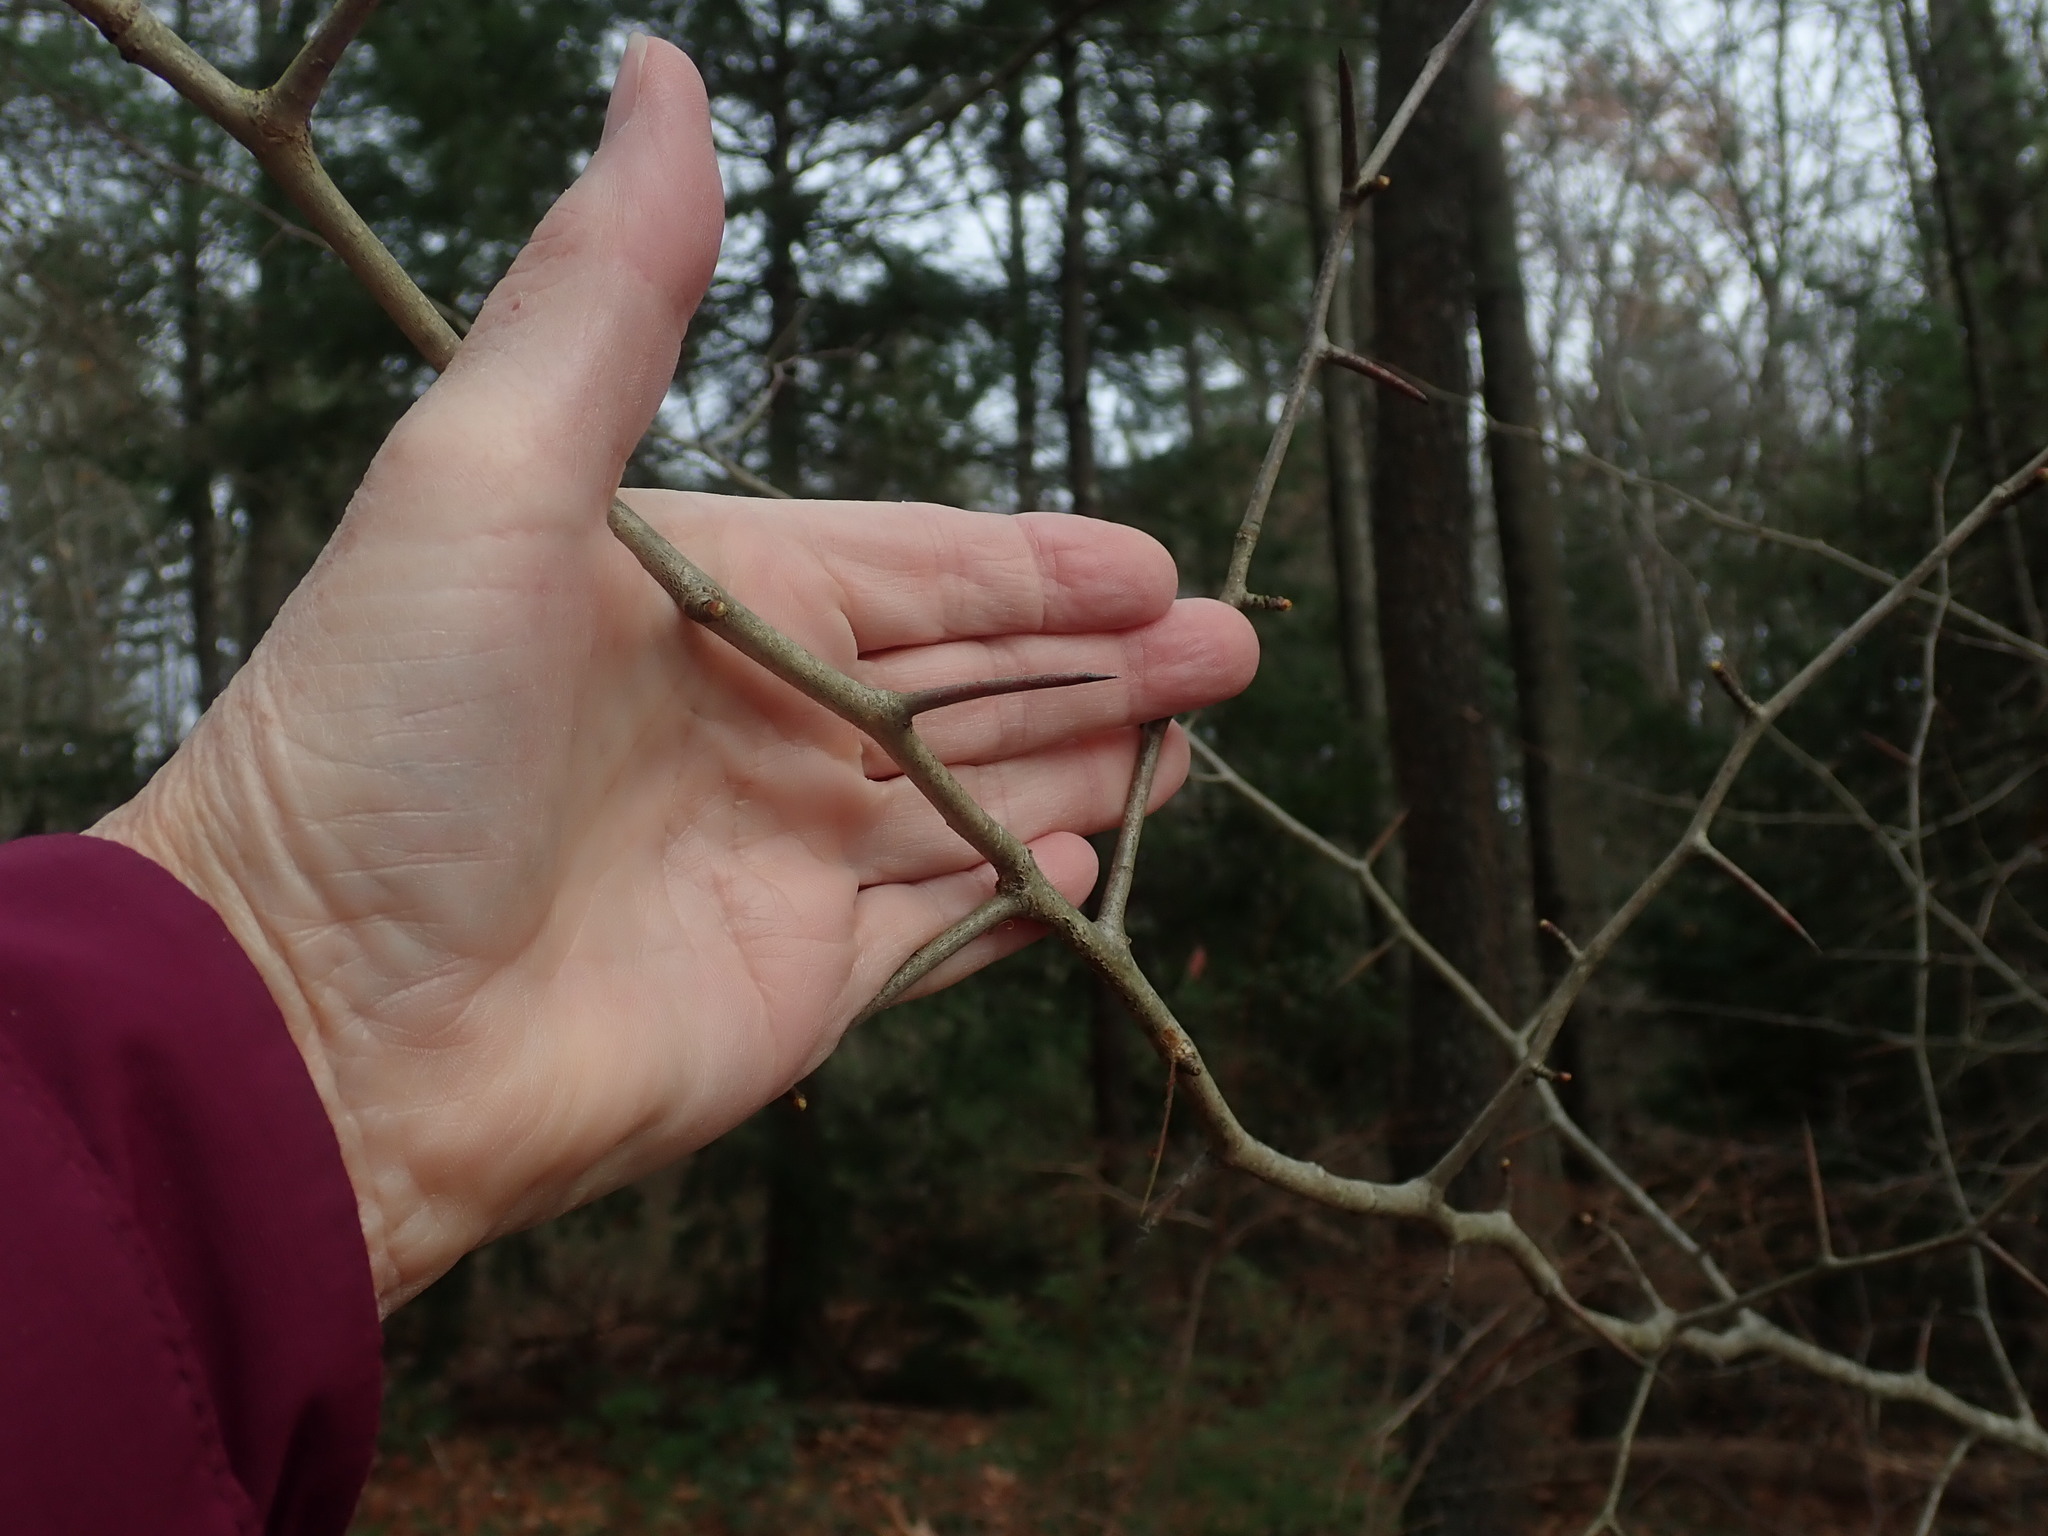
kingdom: Plantae
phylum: Tracheophyta
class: Magnoliopsida
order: Rosales
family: Rosaceae
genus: Crataegus
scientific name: Crataegus
